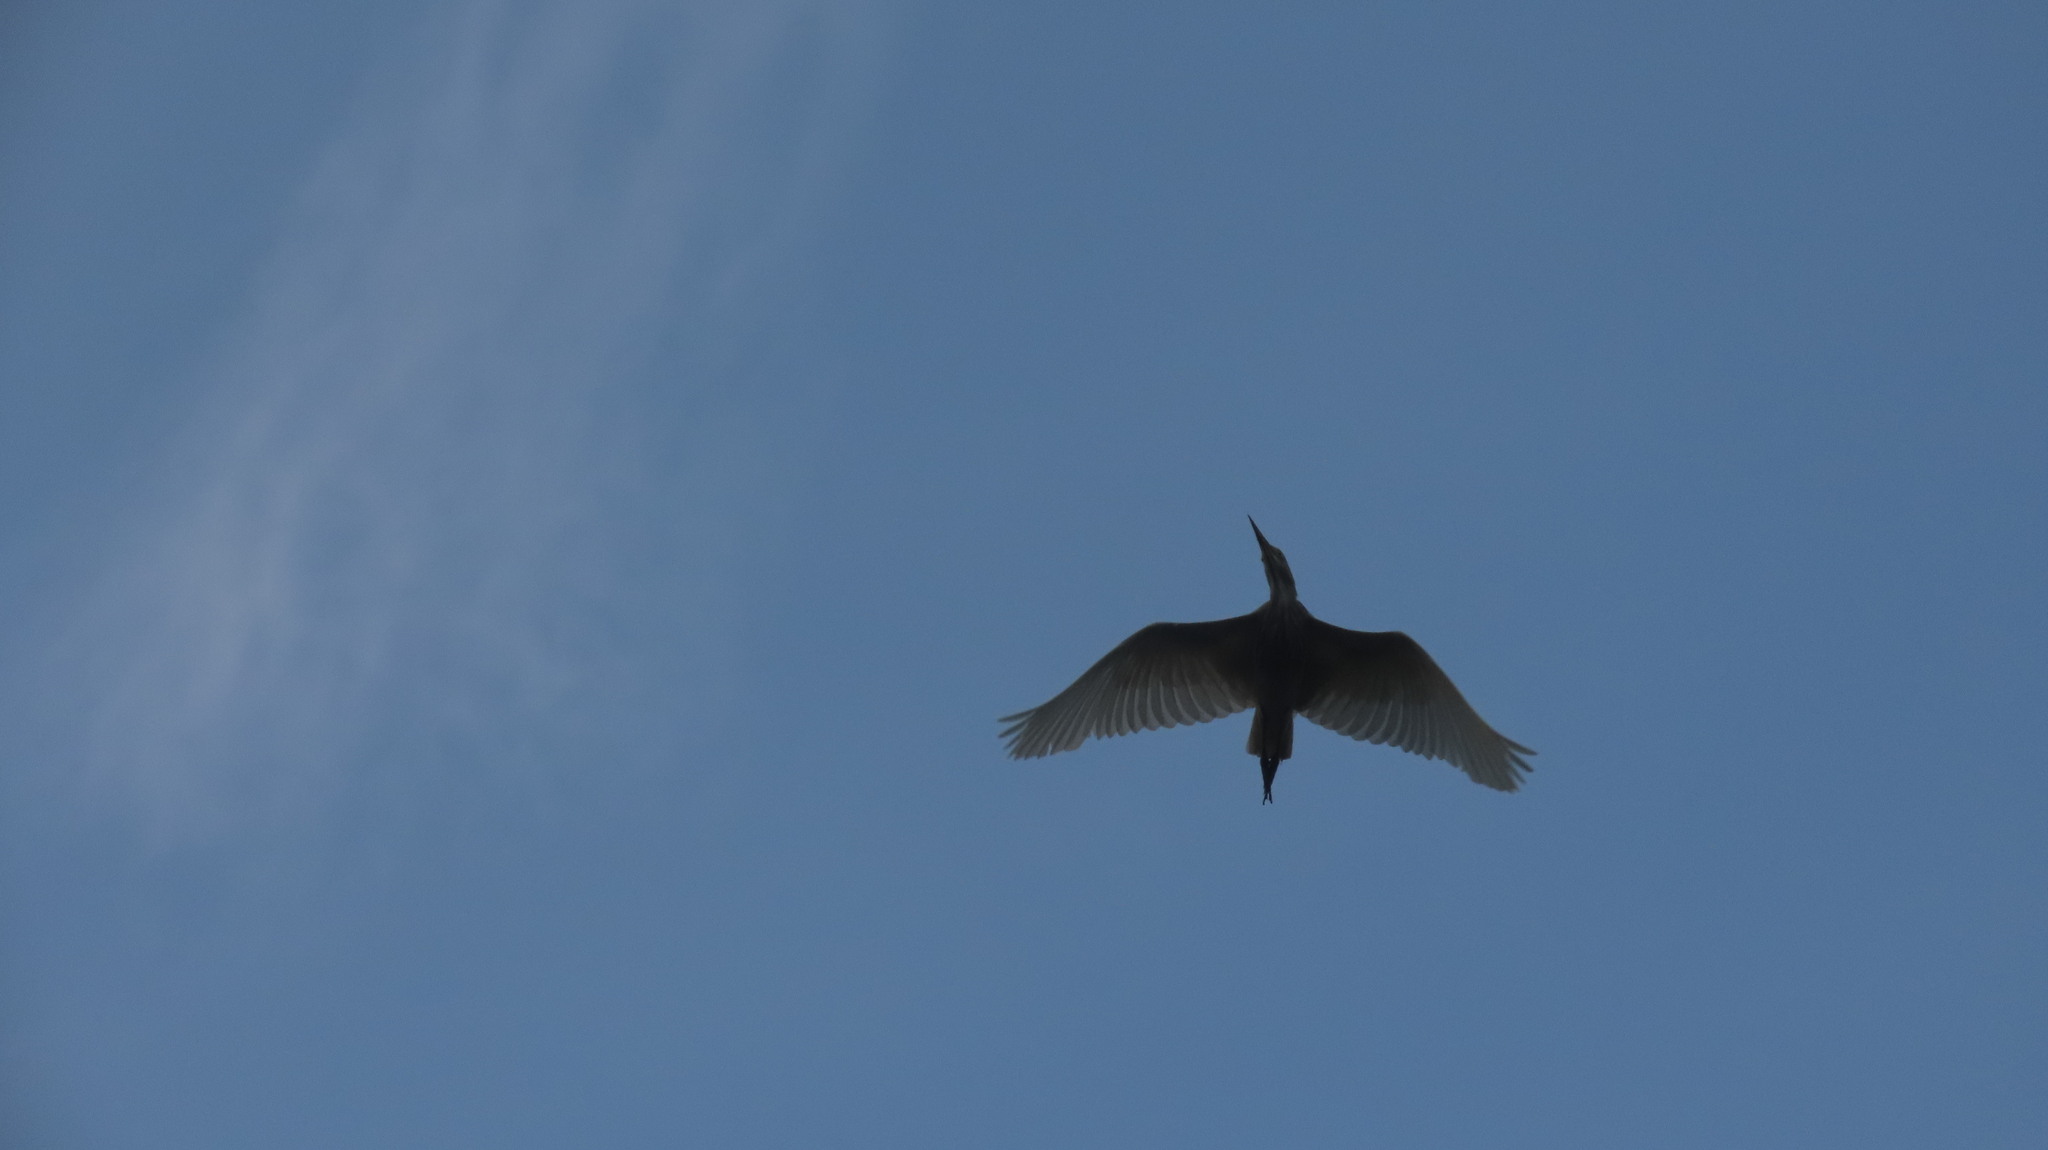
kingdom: Animalia
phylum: Chordata
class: Aves
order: Pelecaniformes
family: Ardeidae
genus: Ardeola
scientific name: Ardeola grayii
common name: Indian pond heron
